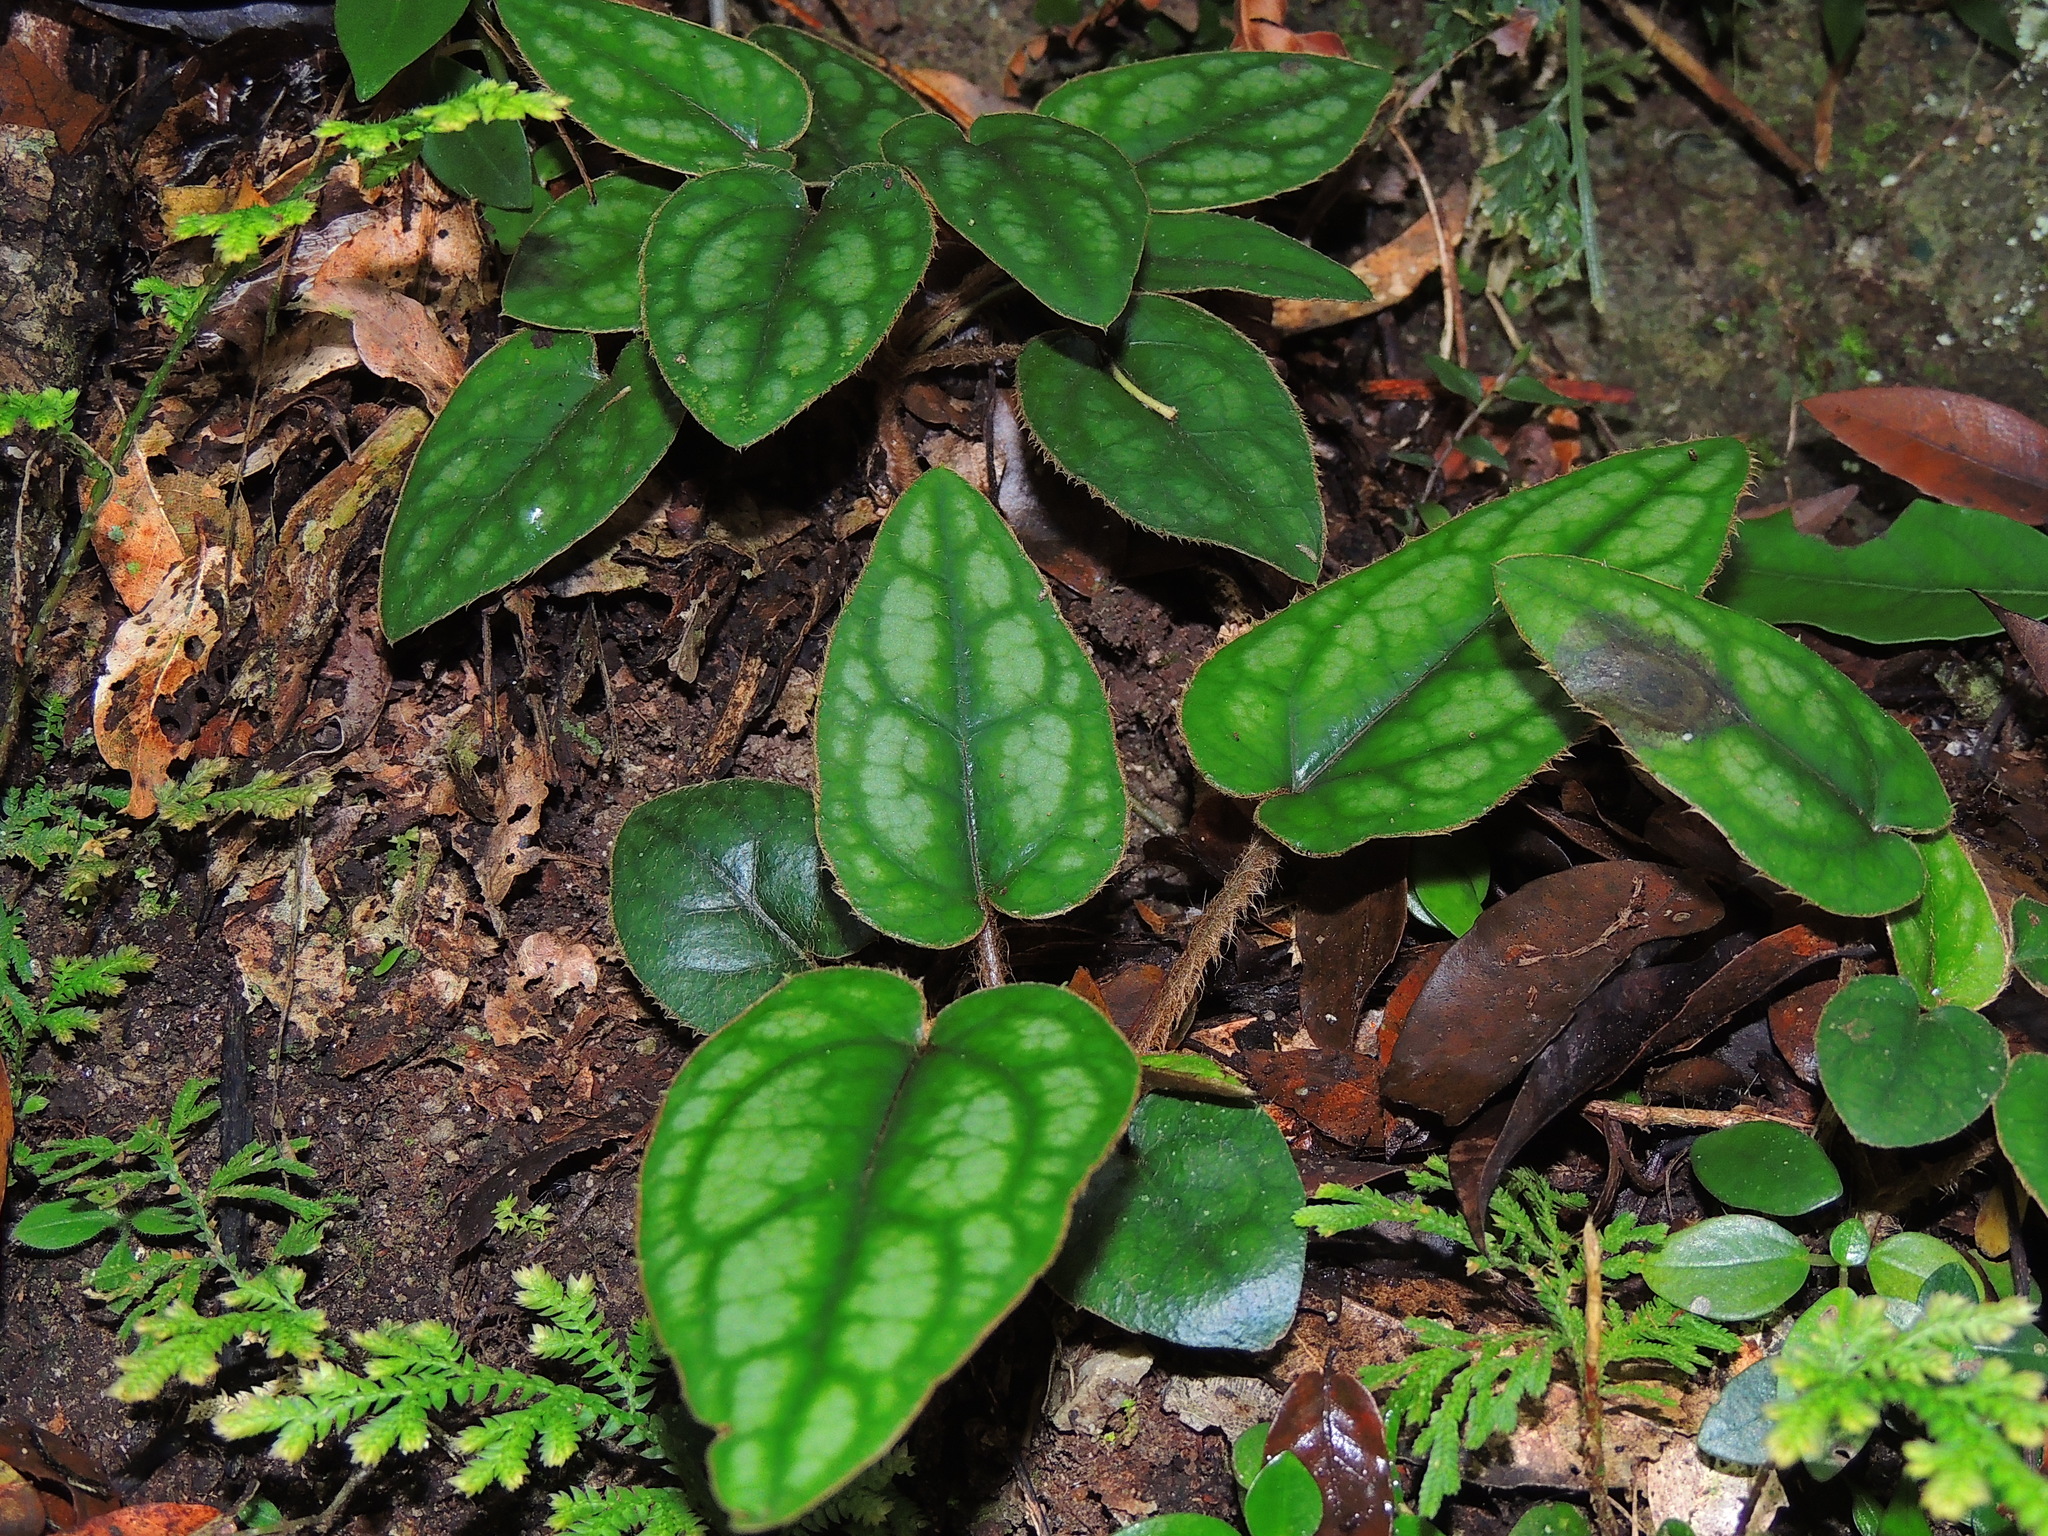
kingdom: Plantae
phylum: Tracheophyta
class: Magnoliopsida
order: Asterales
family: Asteraceae
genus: Ainsliaea
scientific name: Ainsliaea fragrans
